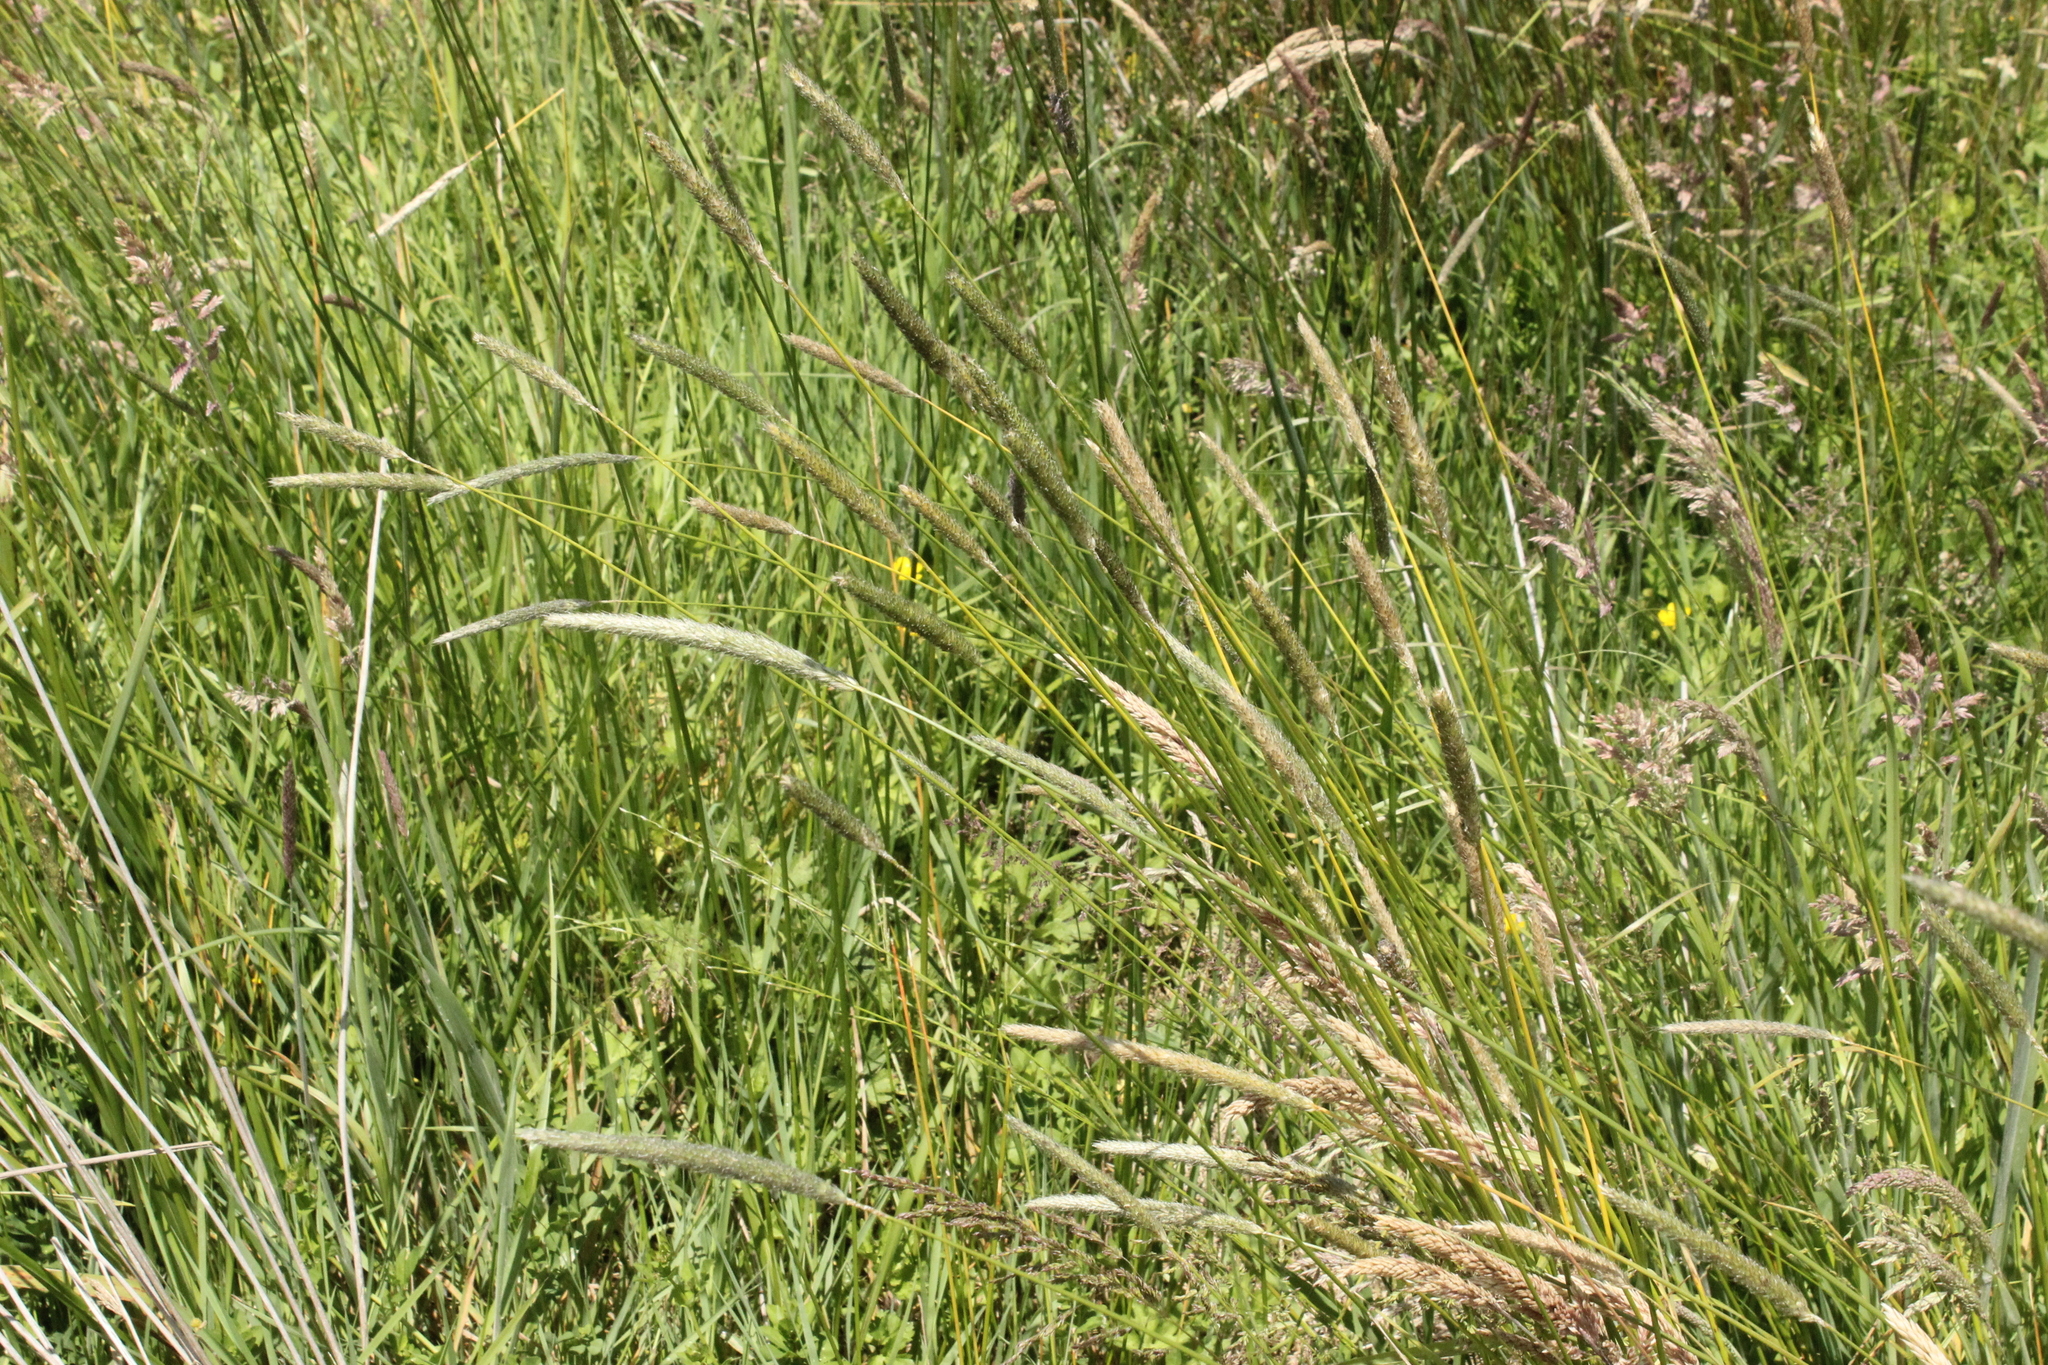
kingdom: Plantae
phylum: Tracheophyta
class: Liliopsida
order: Poales
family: Poaceae
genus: Alopecurus
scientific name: Alopecurus geniculatus
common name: Water foxtail
